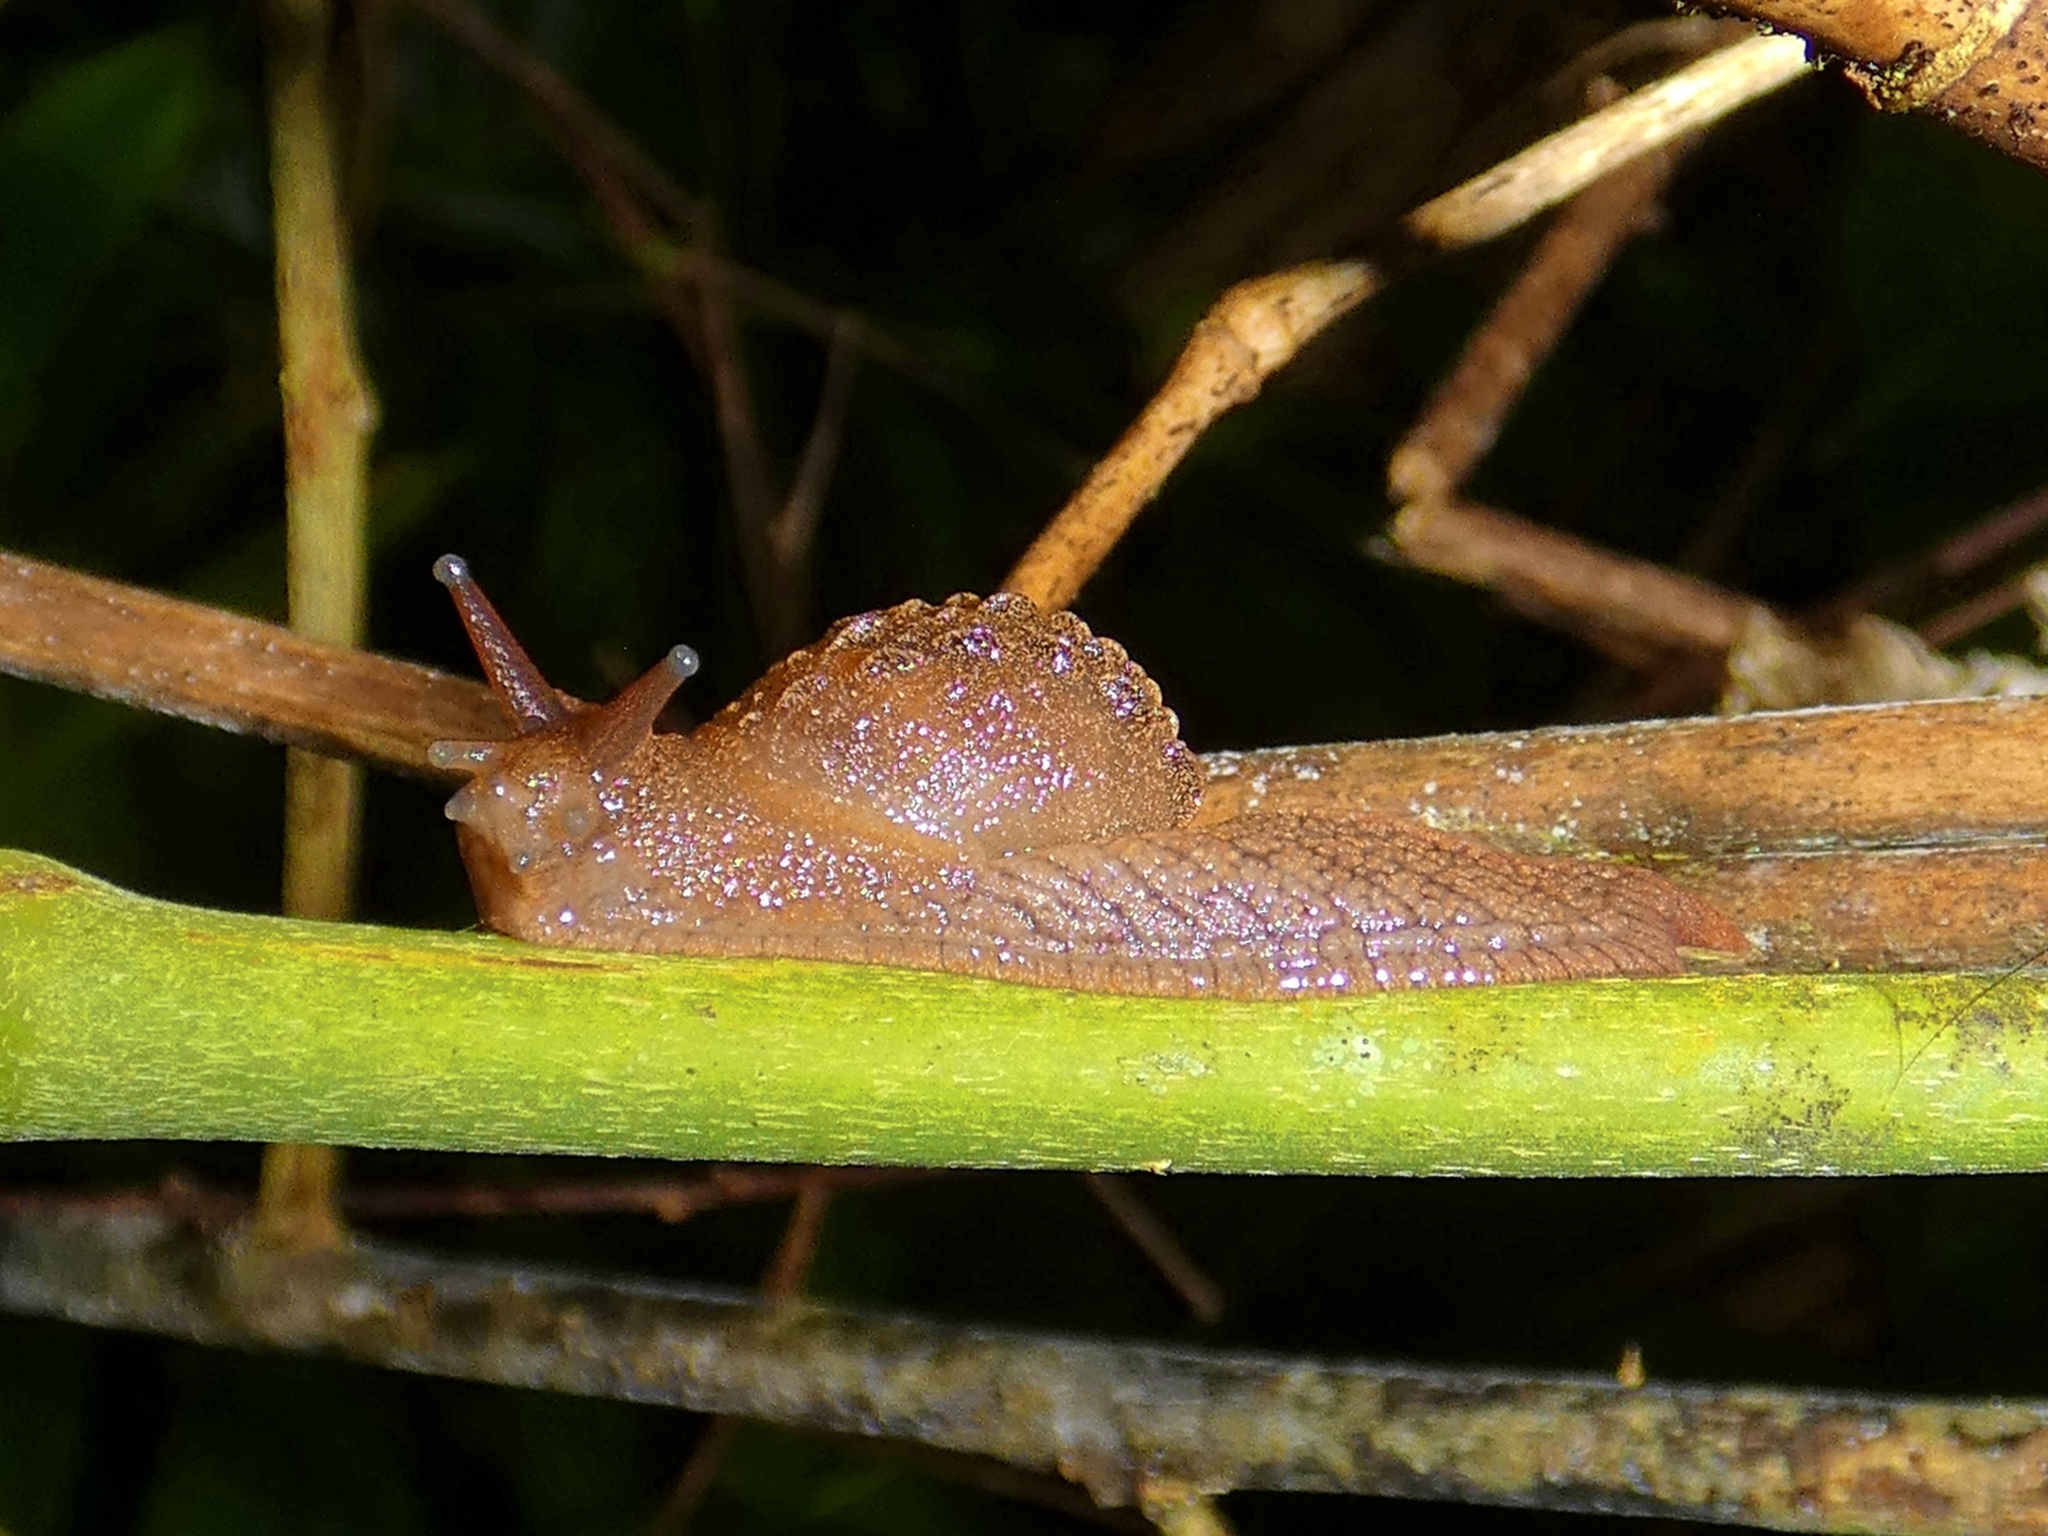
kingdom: Animalia
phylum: Mollusca
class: Gastropoda
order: Stylommatophora
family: Helicarionidae
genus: Fastosarion
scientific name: Fastosarion brazieri
